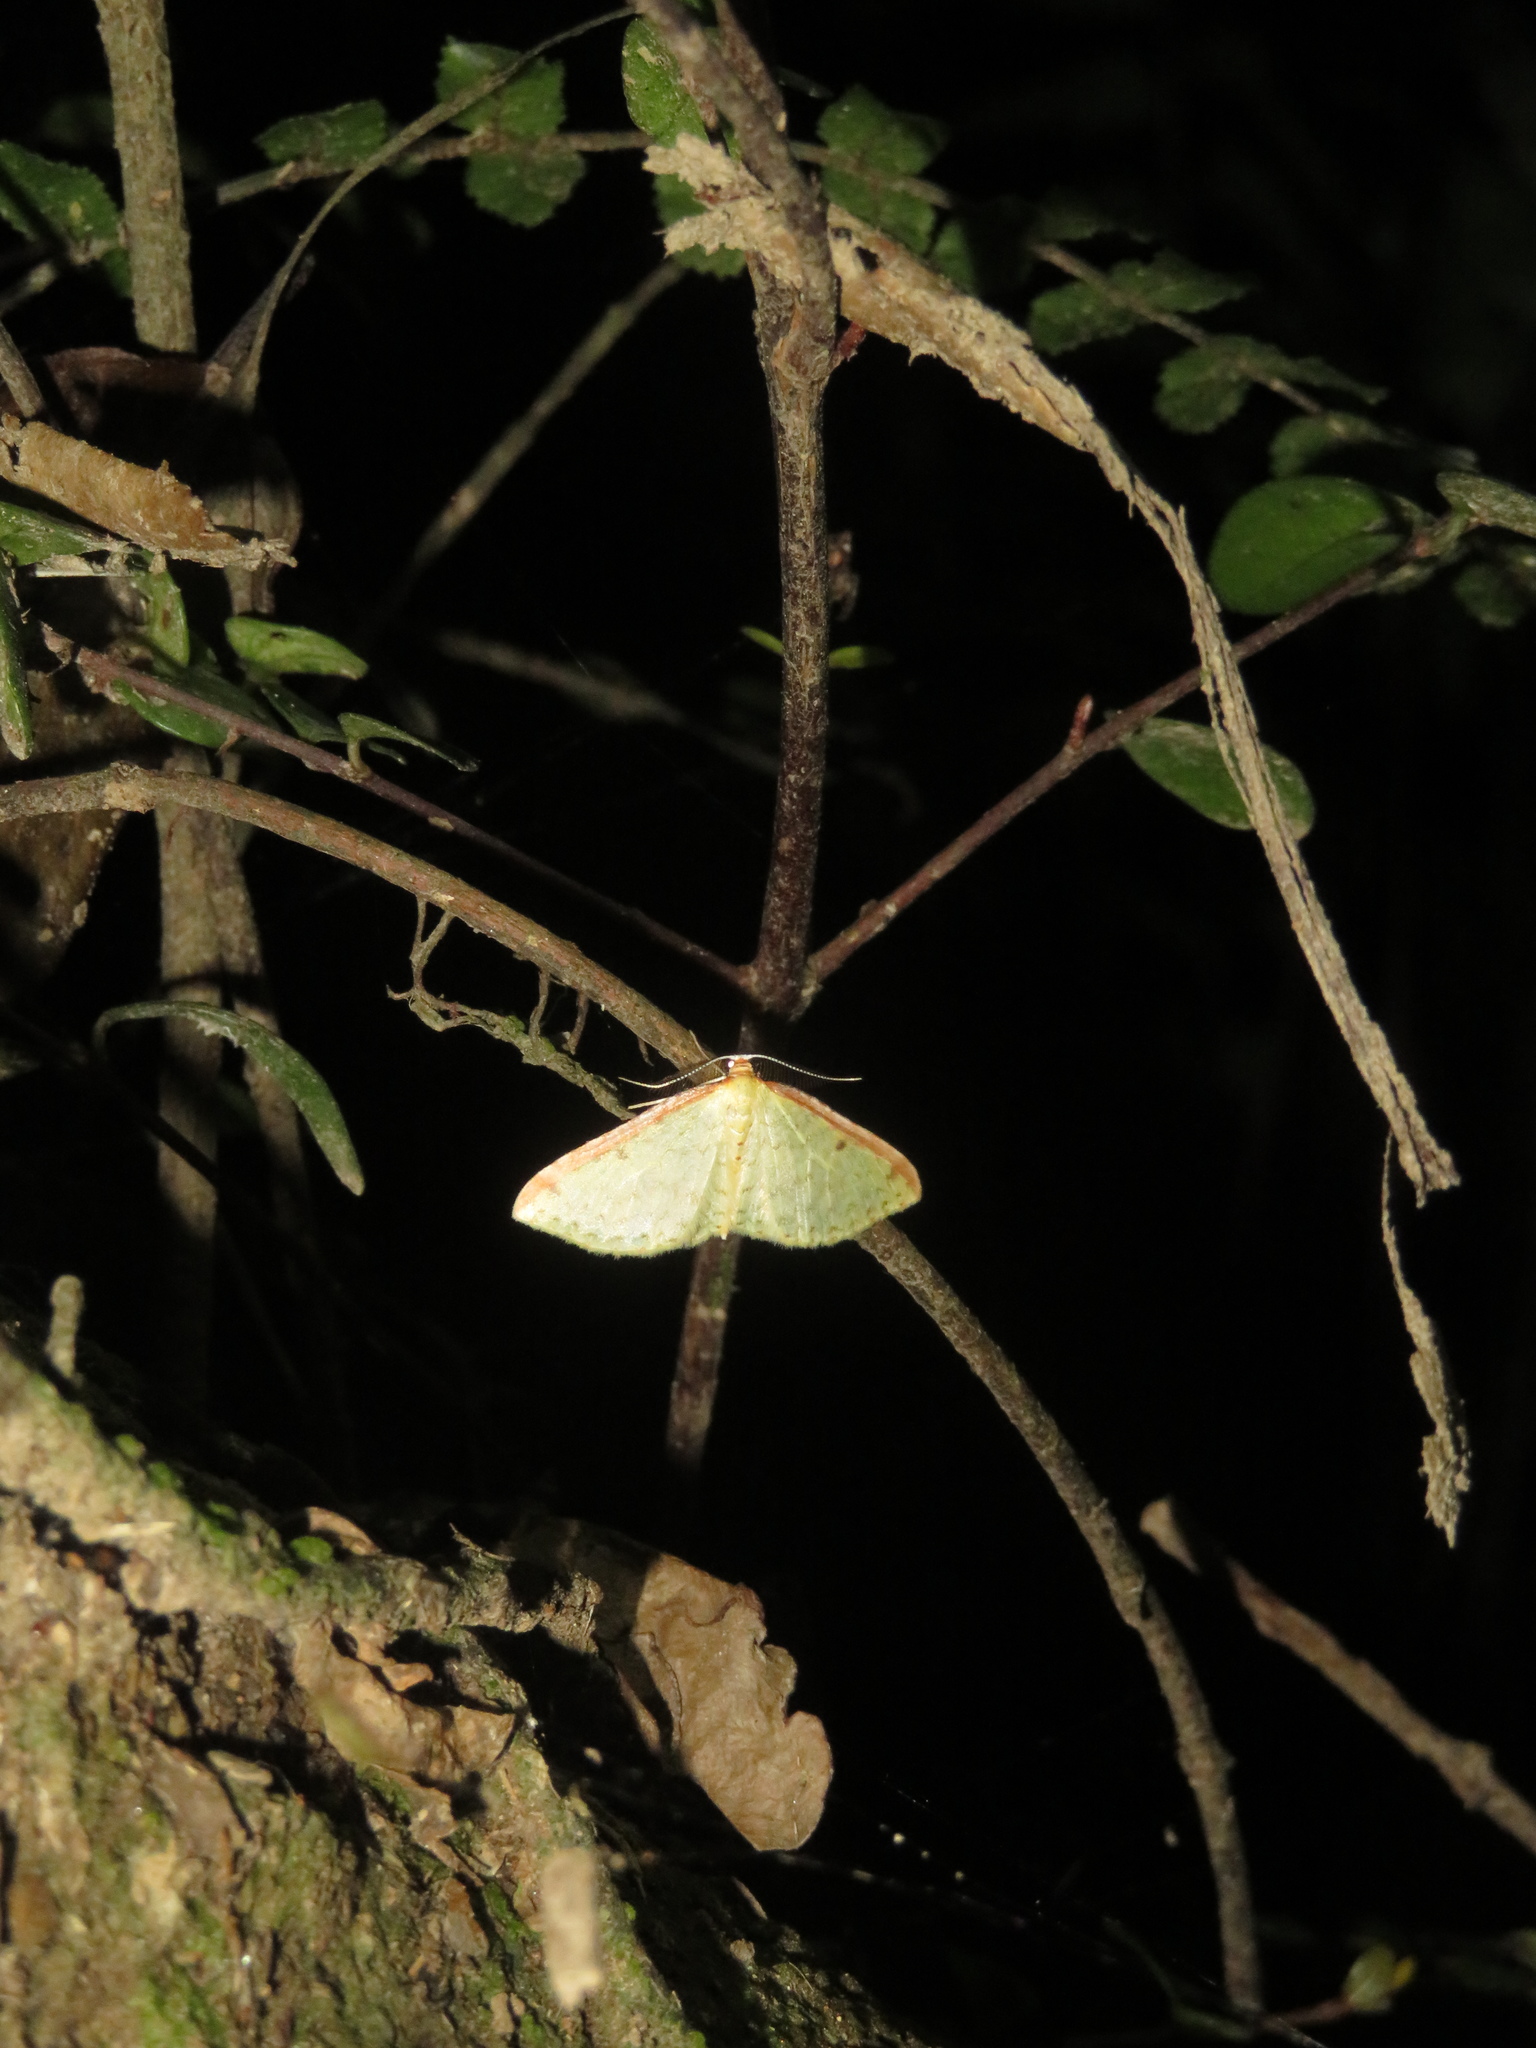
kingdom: Animalia
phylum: Arthropoda
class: Insecta
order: Lepidoptera
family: Geometridae
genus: Epiphryne
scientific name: Epiphryne undosata
